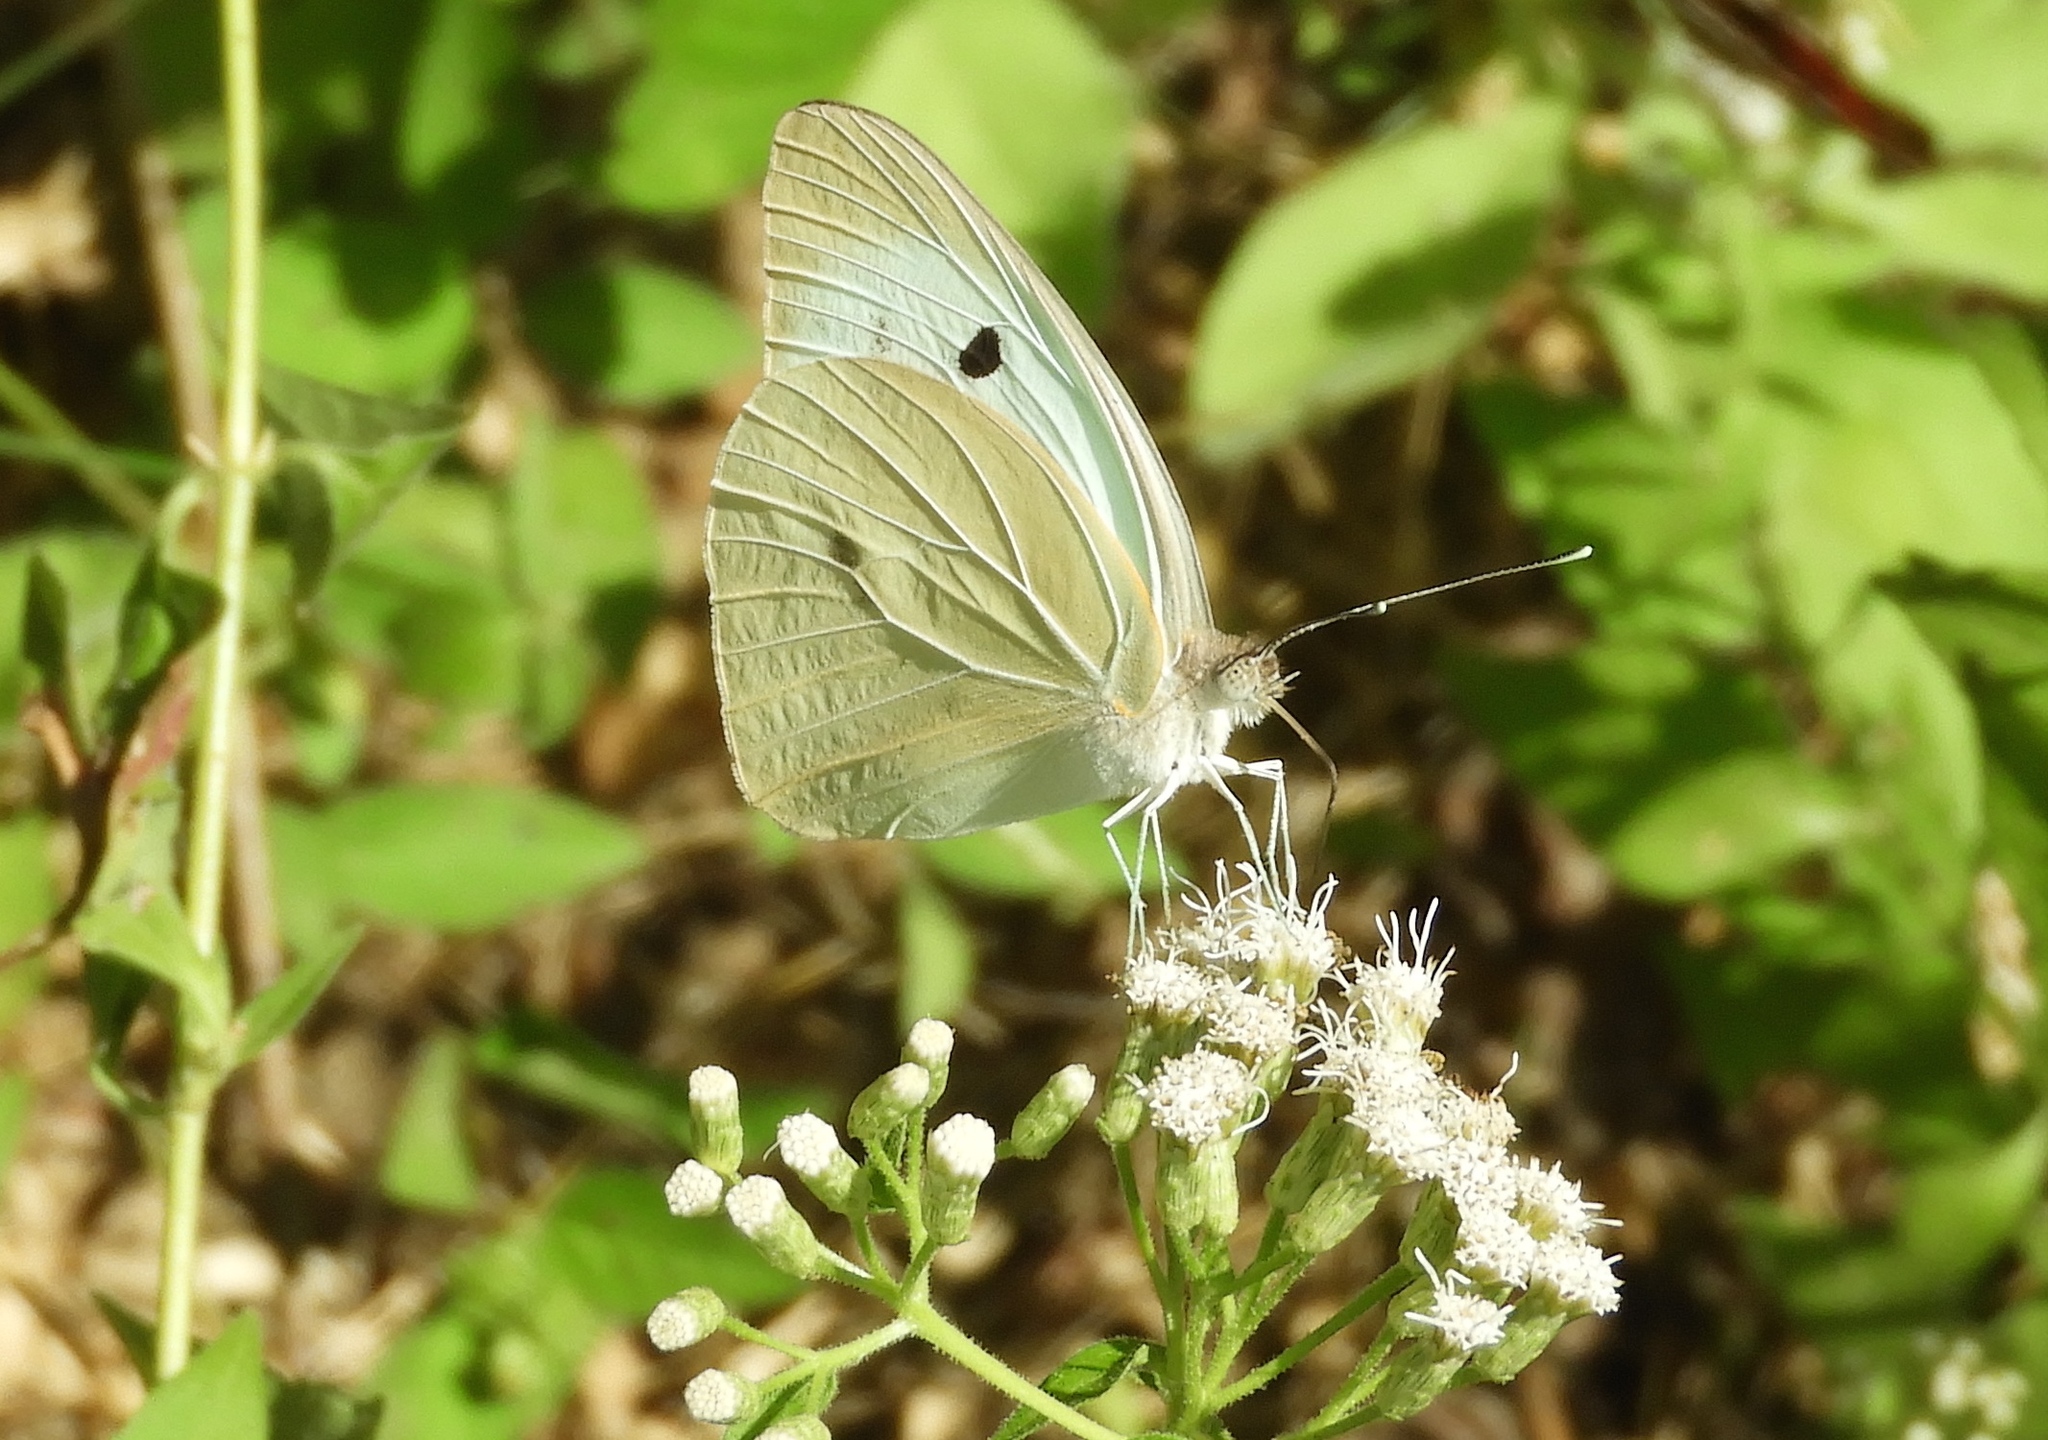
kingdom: Animalia
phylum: Arthropoda
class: Insecta
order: Lepidoptera
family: Pieridae
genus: Ganyra
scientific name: Ganyra josephina
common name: Giant white
